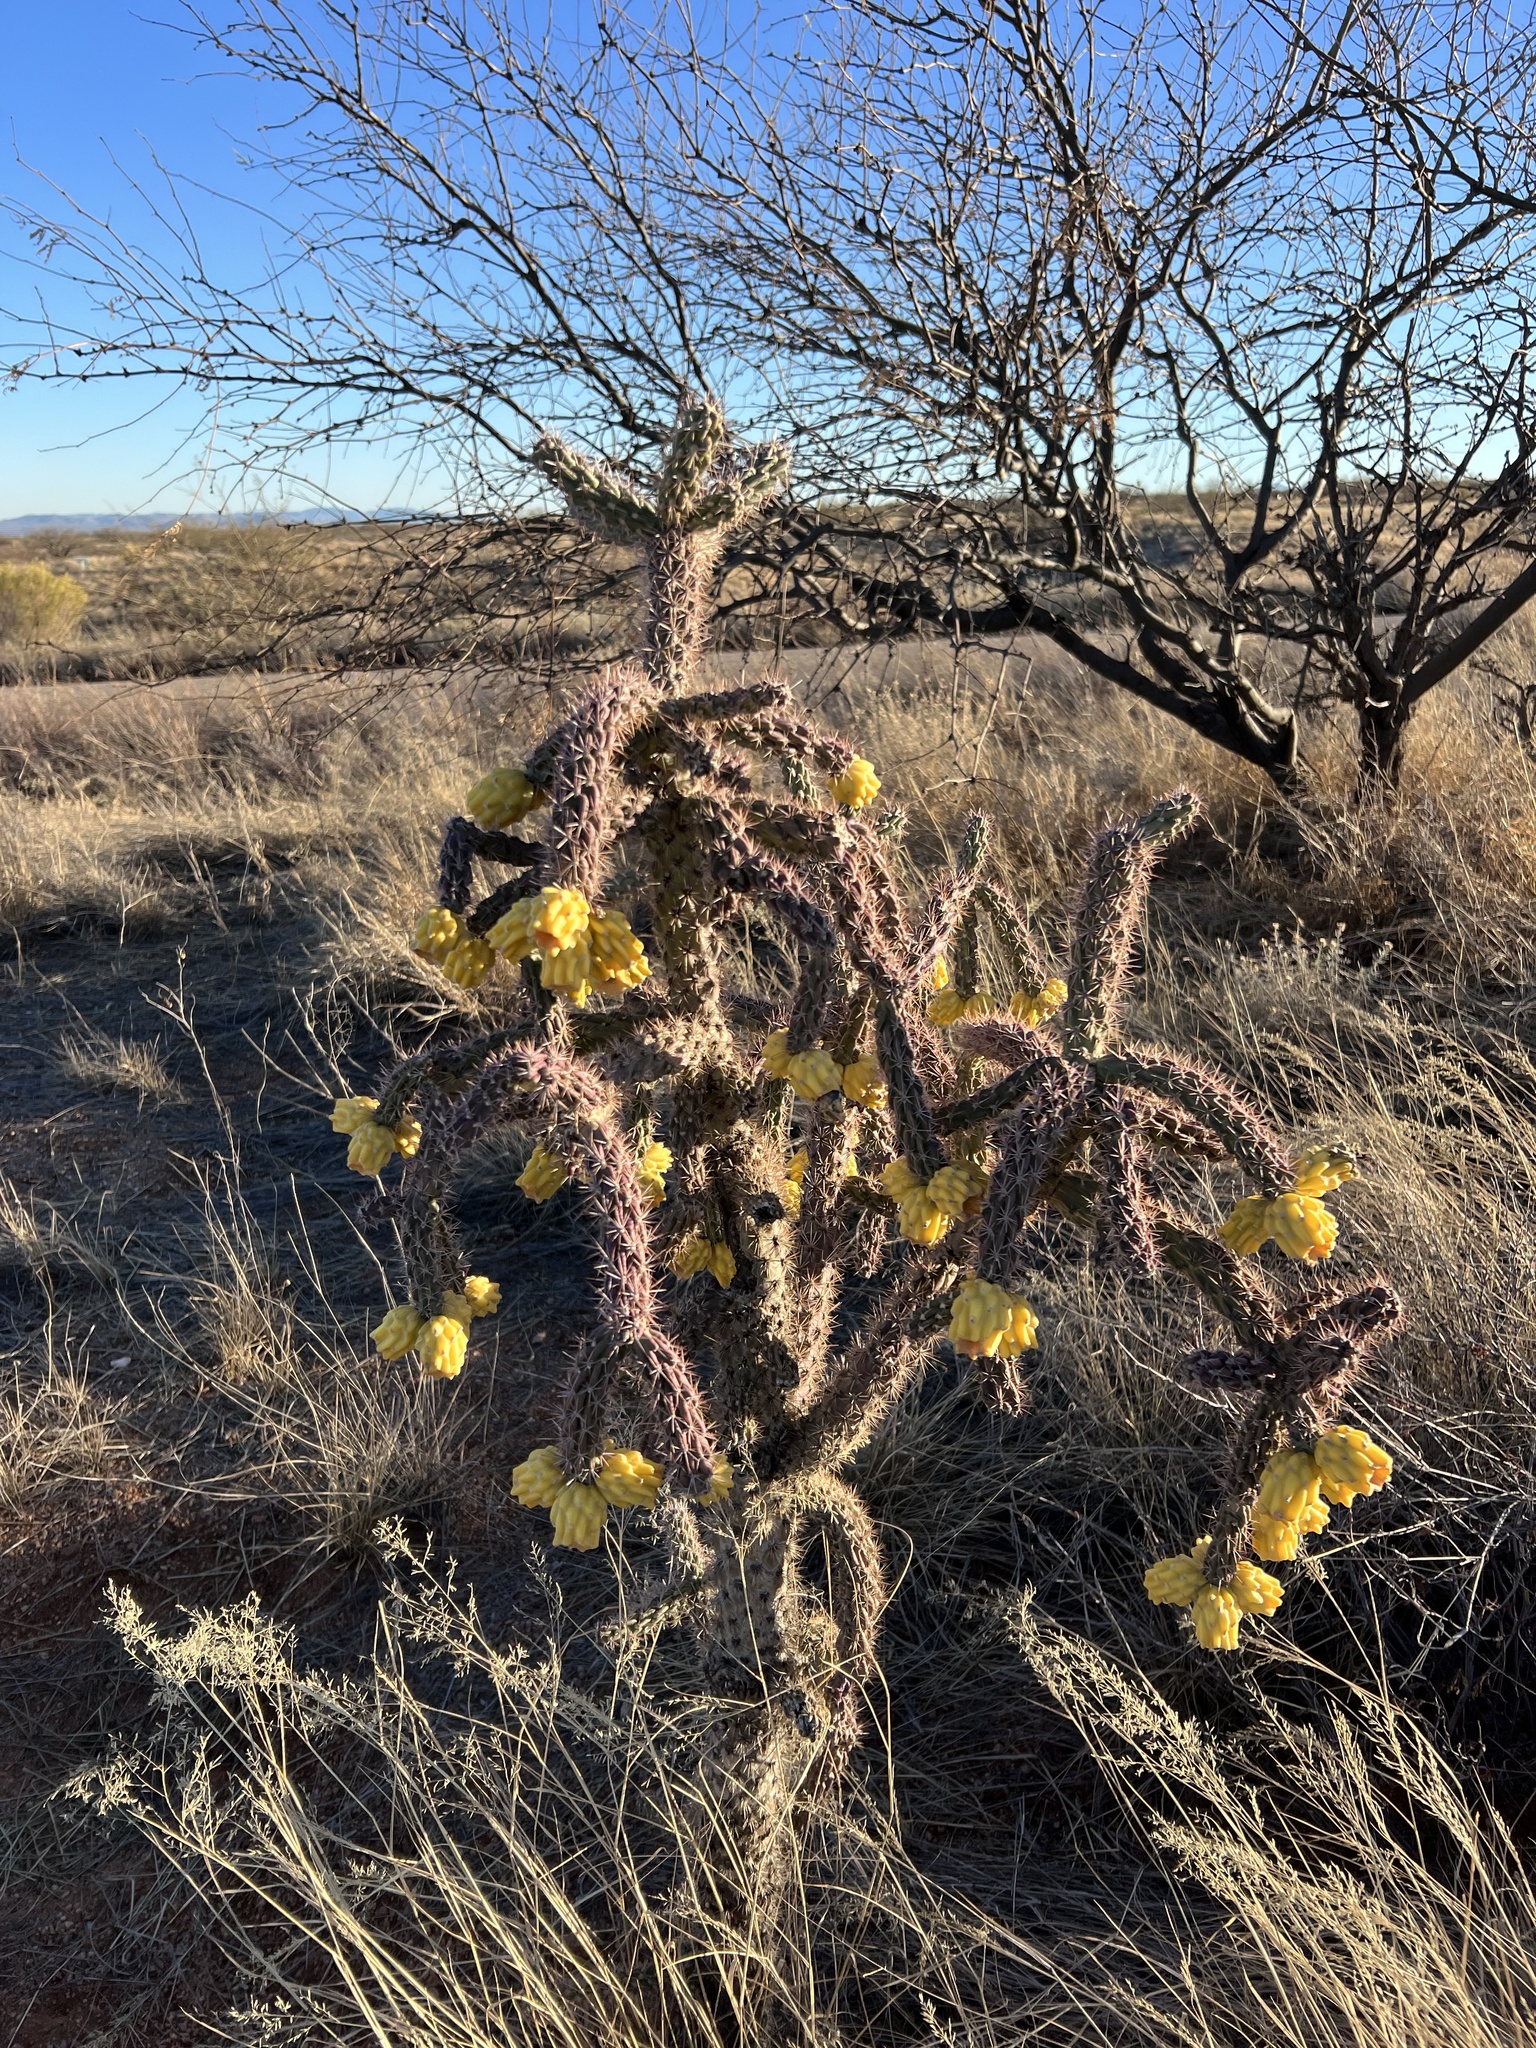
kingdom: Plantae
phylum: Tracheophyta
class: Magnoliopsida
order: Caryophyllales
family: Cactaceae
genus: Cylindropuntia
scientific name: Cylindropuntia imbricata
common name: Candelabrum cactus
